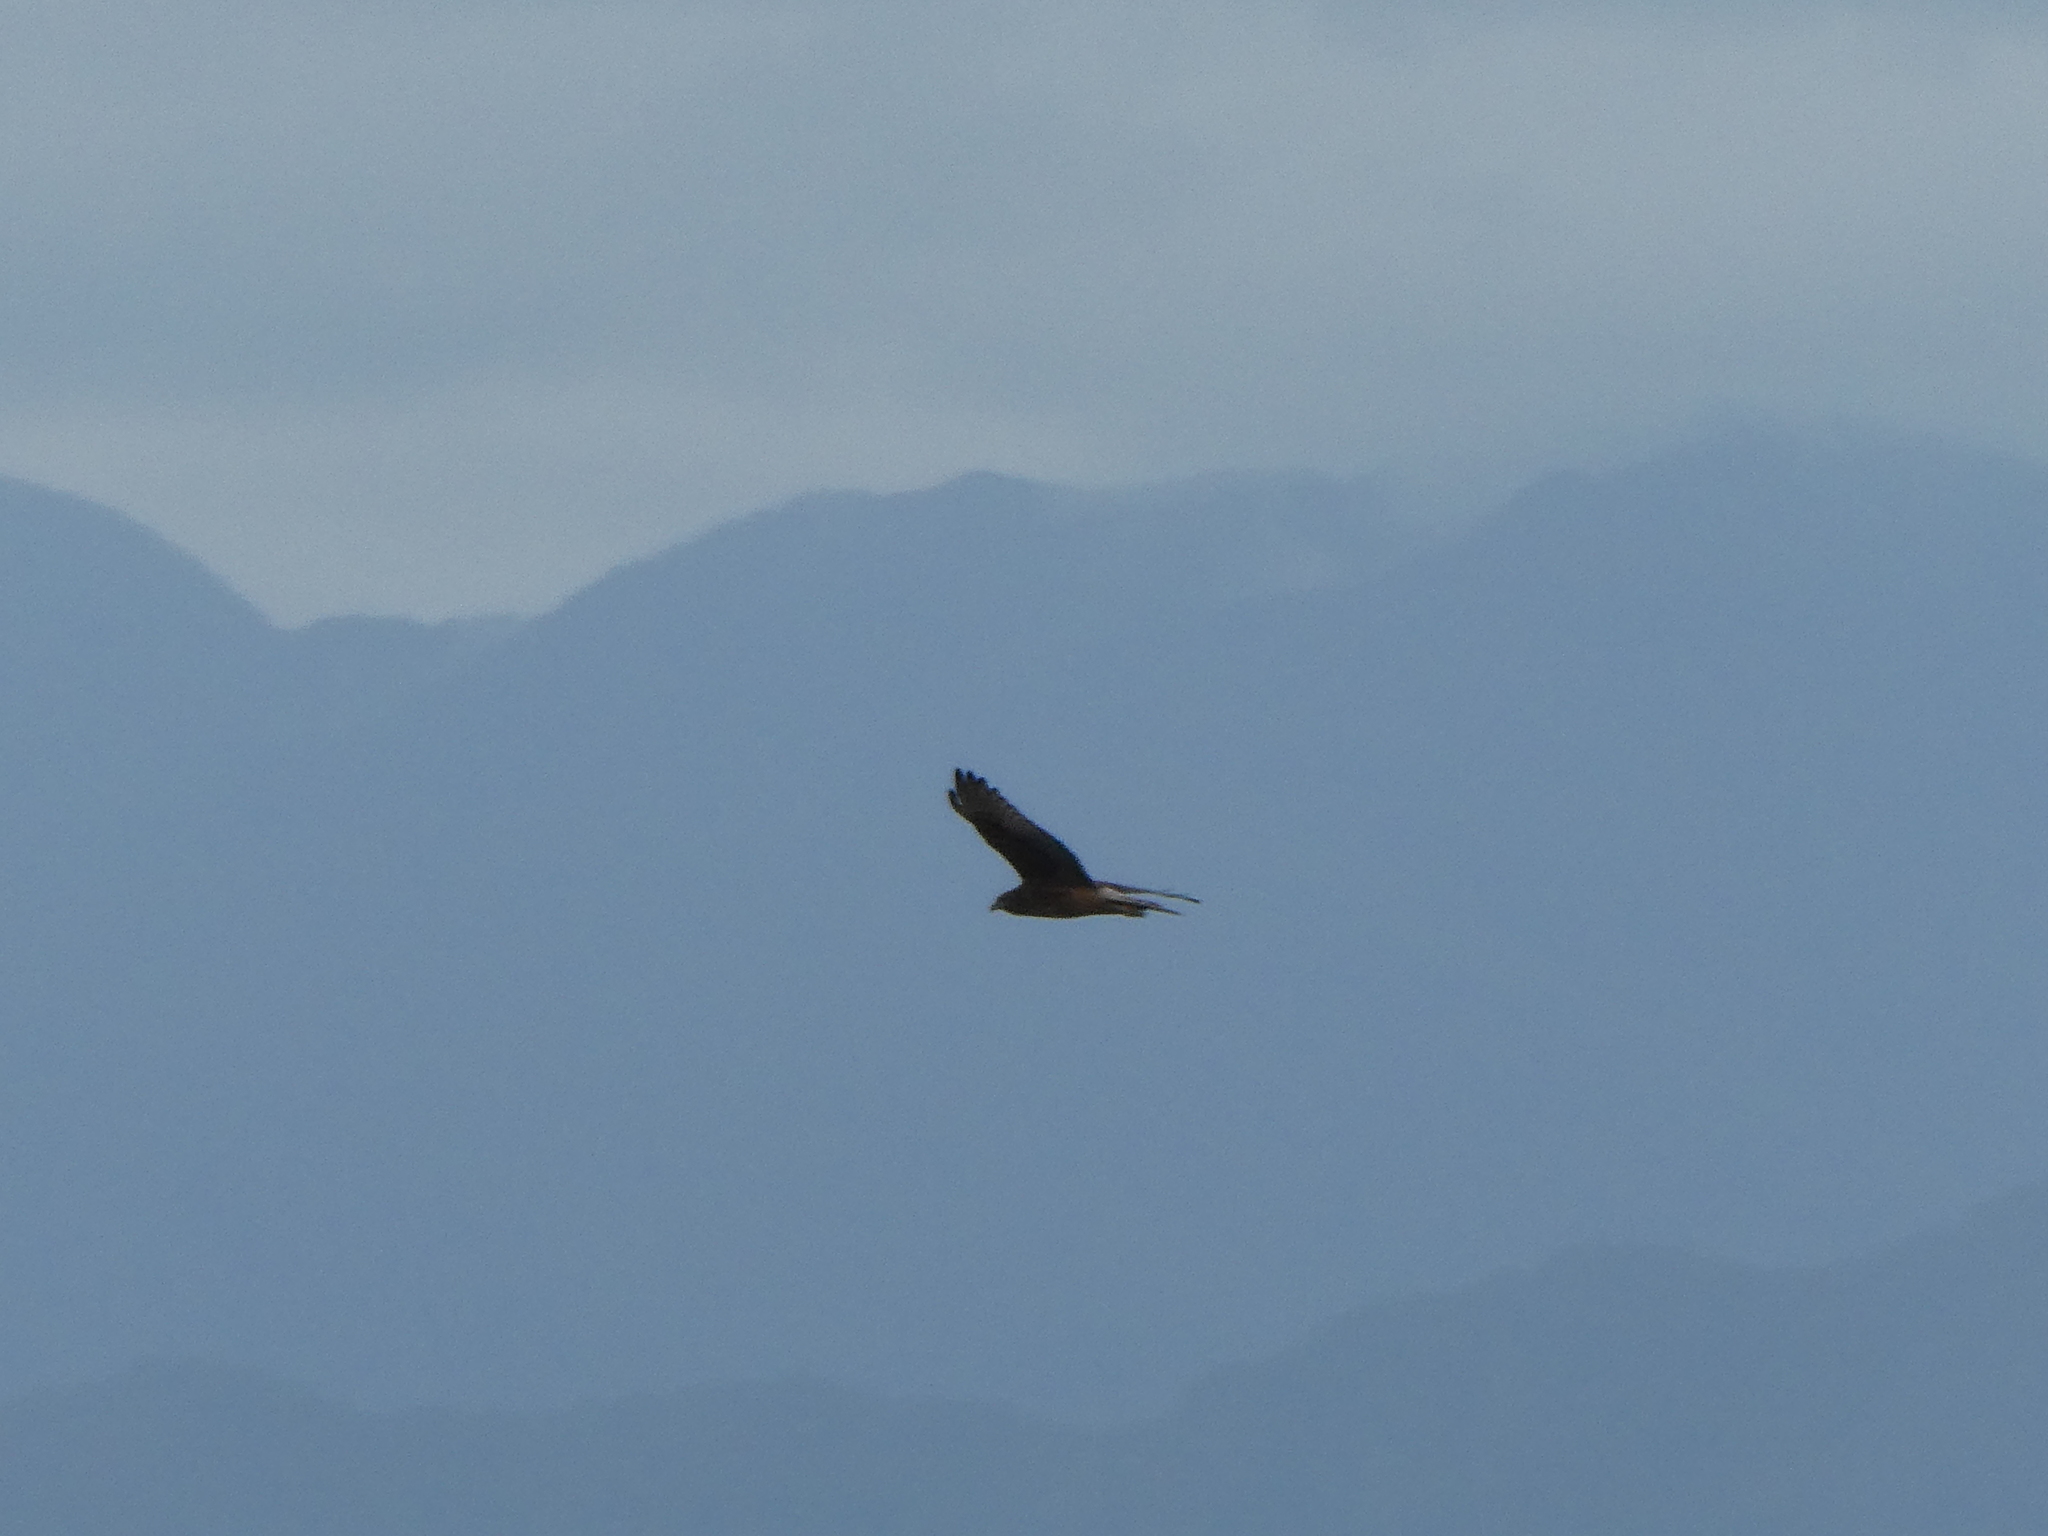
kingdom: Animalia
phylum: Chordata
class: Aves
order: Accipitriformes
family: Accipitridae
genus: Circus
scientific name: Circus approximans
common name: Swamp harrier
